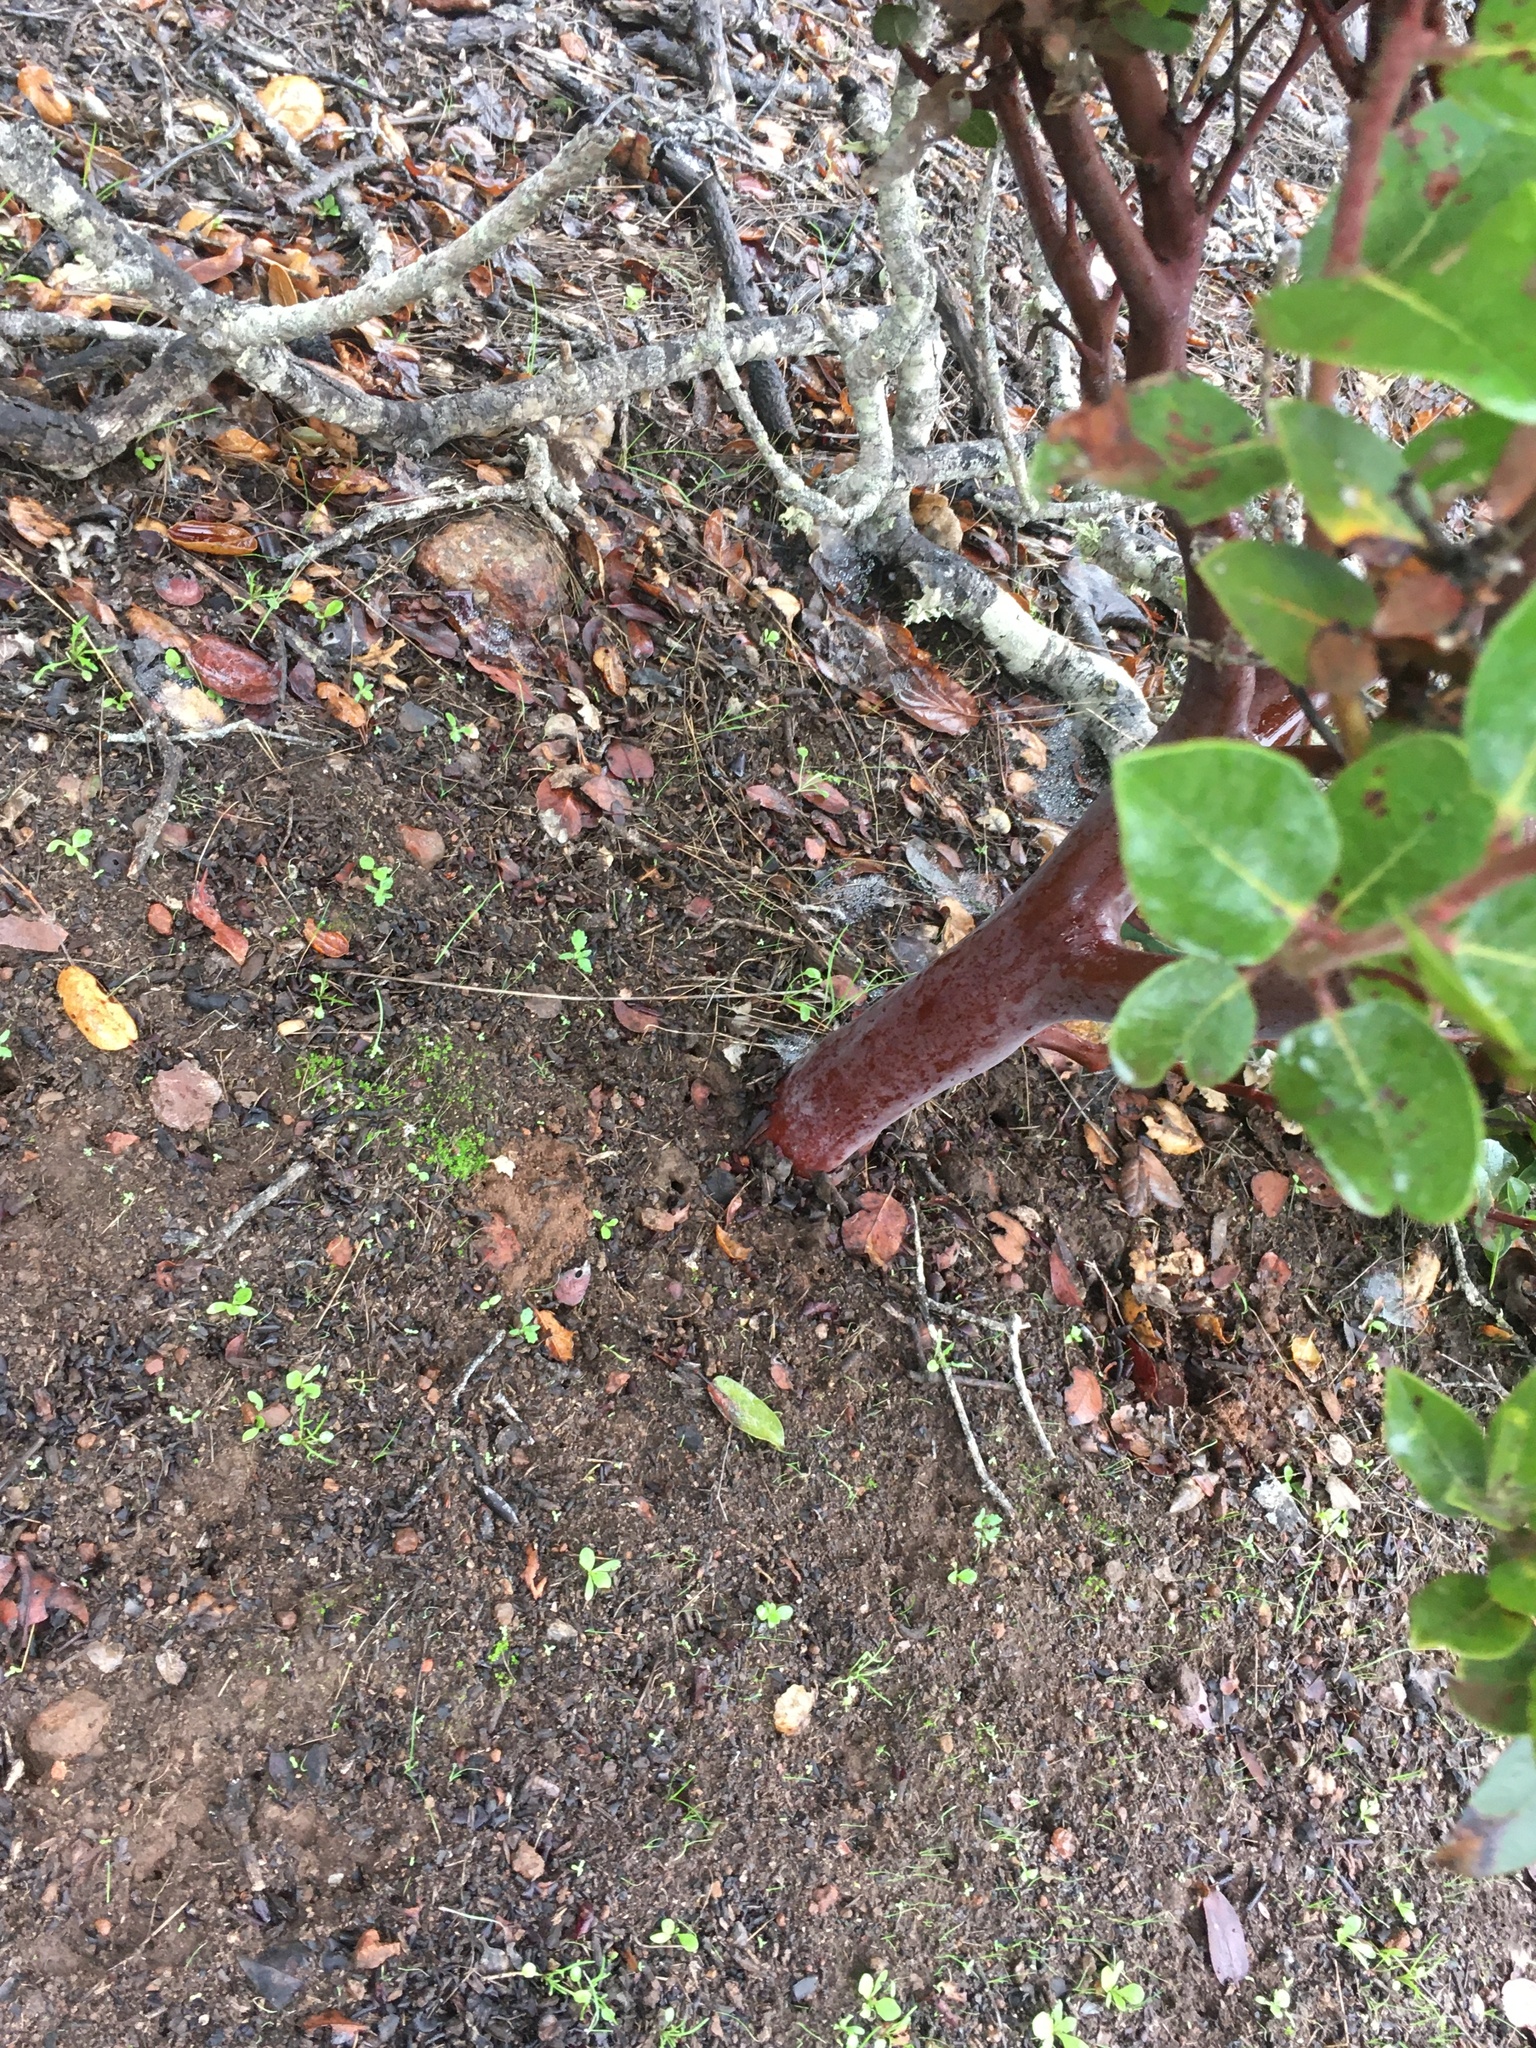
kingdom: Plantae
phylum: Tracheophyta
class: Magnoliopsida
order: Ericales
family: Ericaceae
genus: Arctostaphylos
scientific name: Arctostaphylos viridissima
